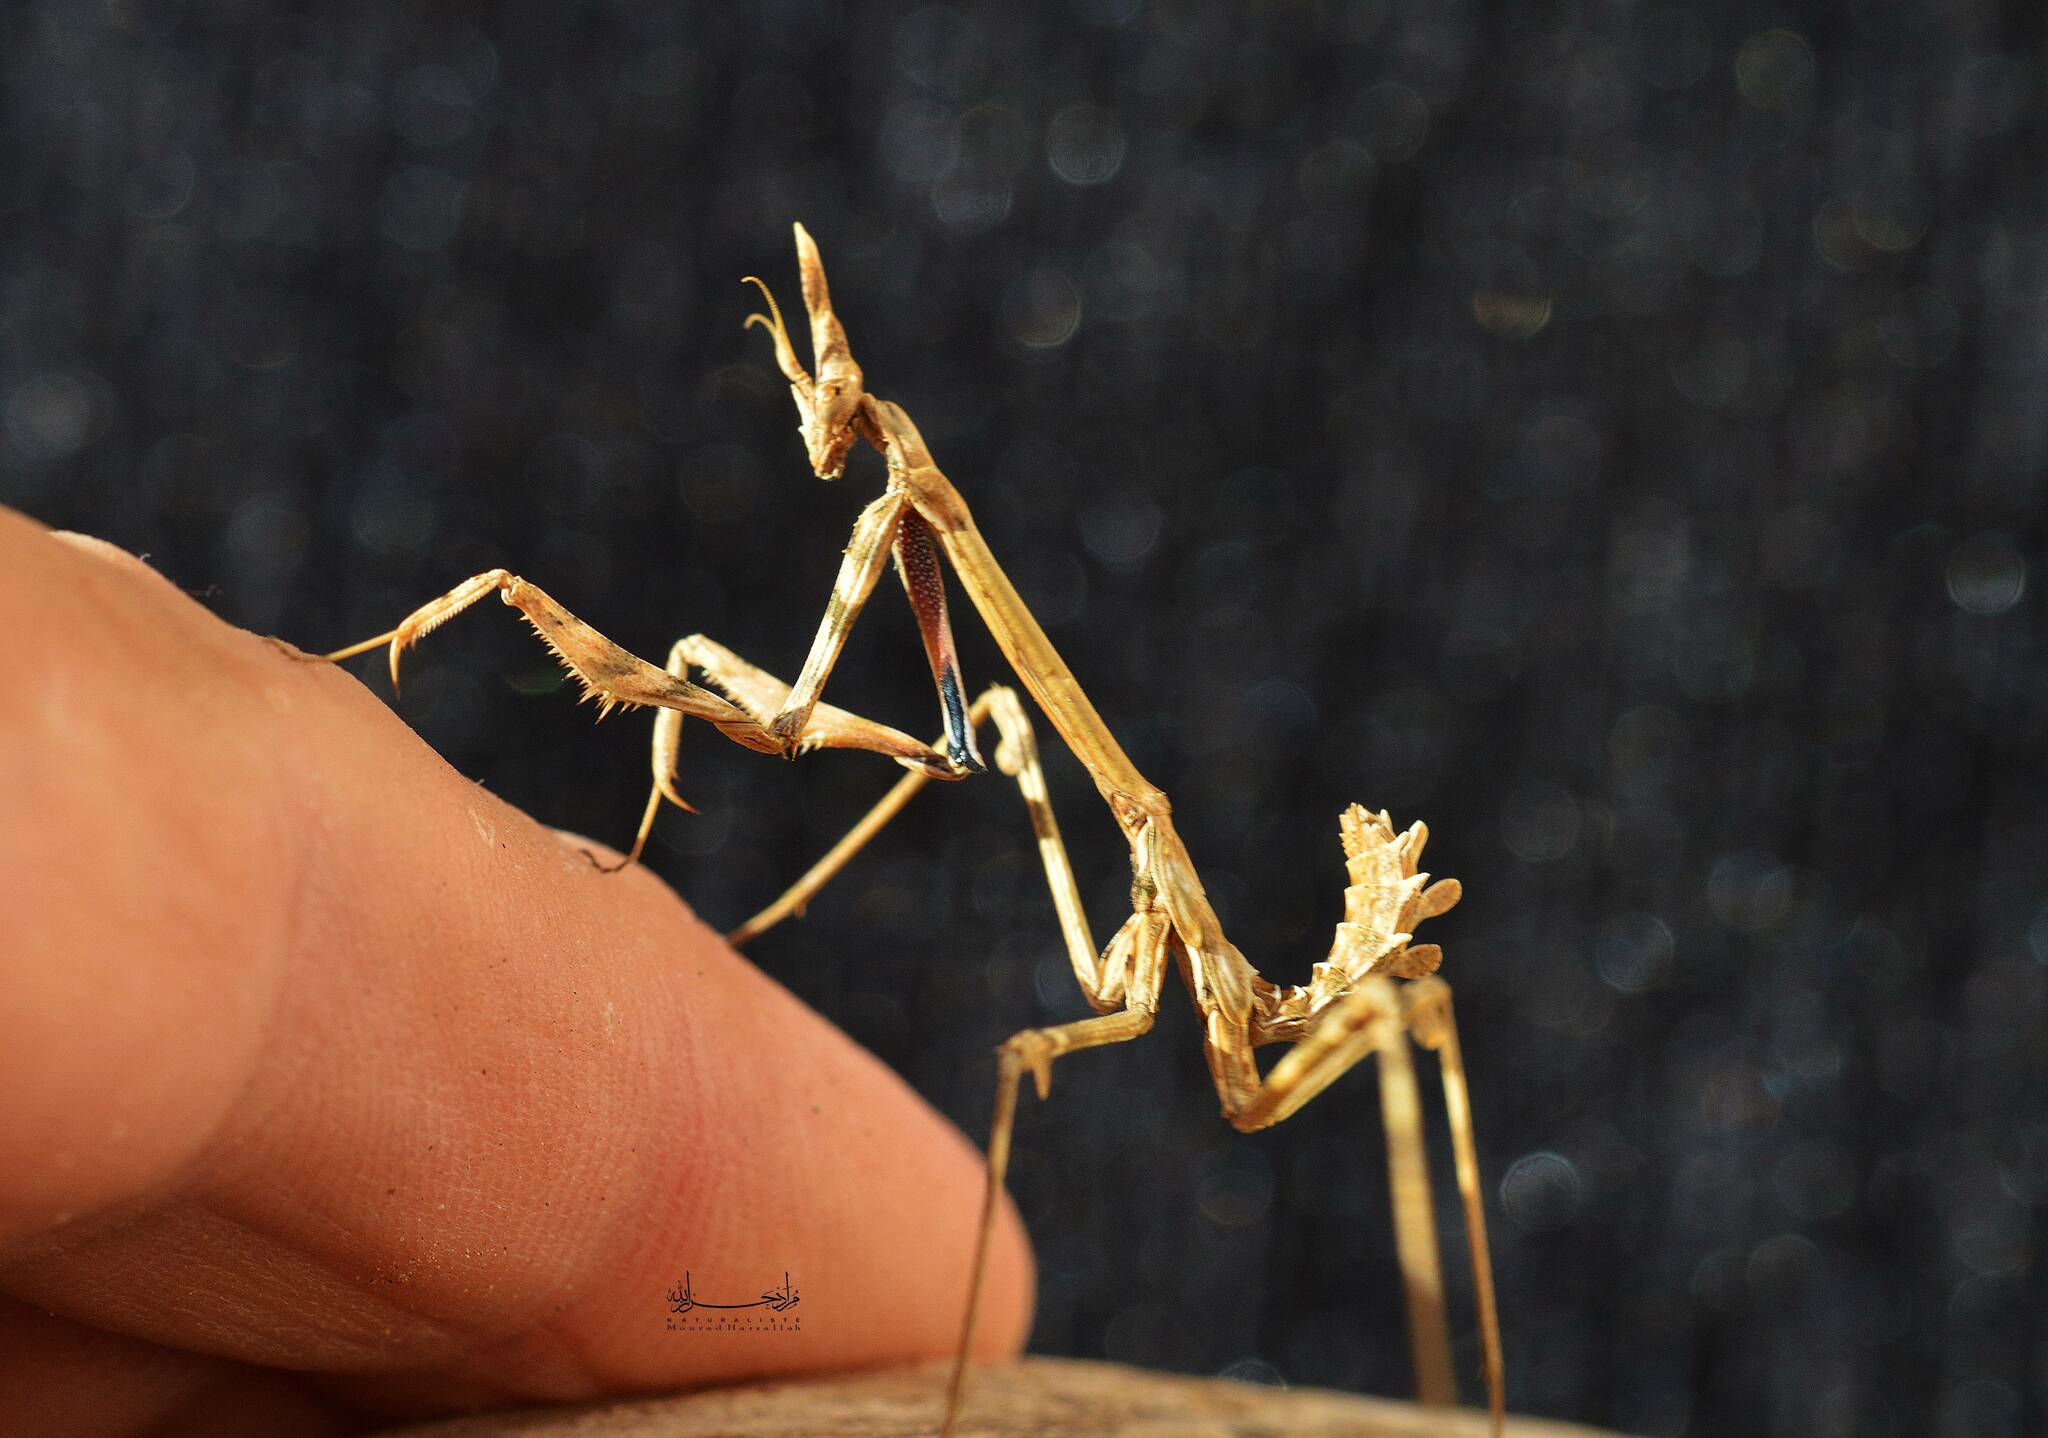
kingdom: Animalia
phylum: Arthropoda
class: Insecta
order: Mantodea
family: Empusidae
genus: Empusa
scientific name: Empusa pennata
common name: Conehead mantis
